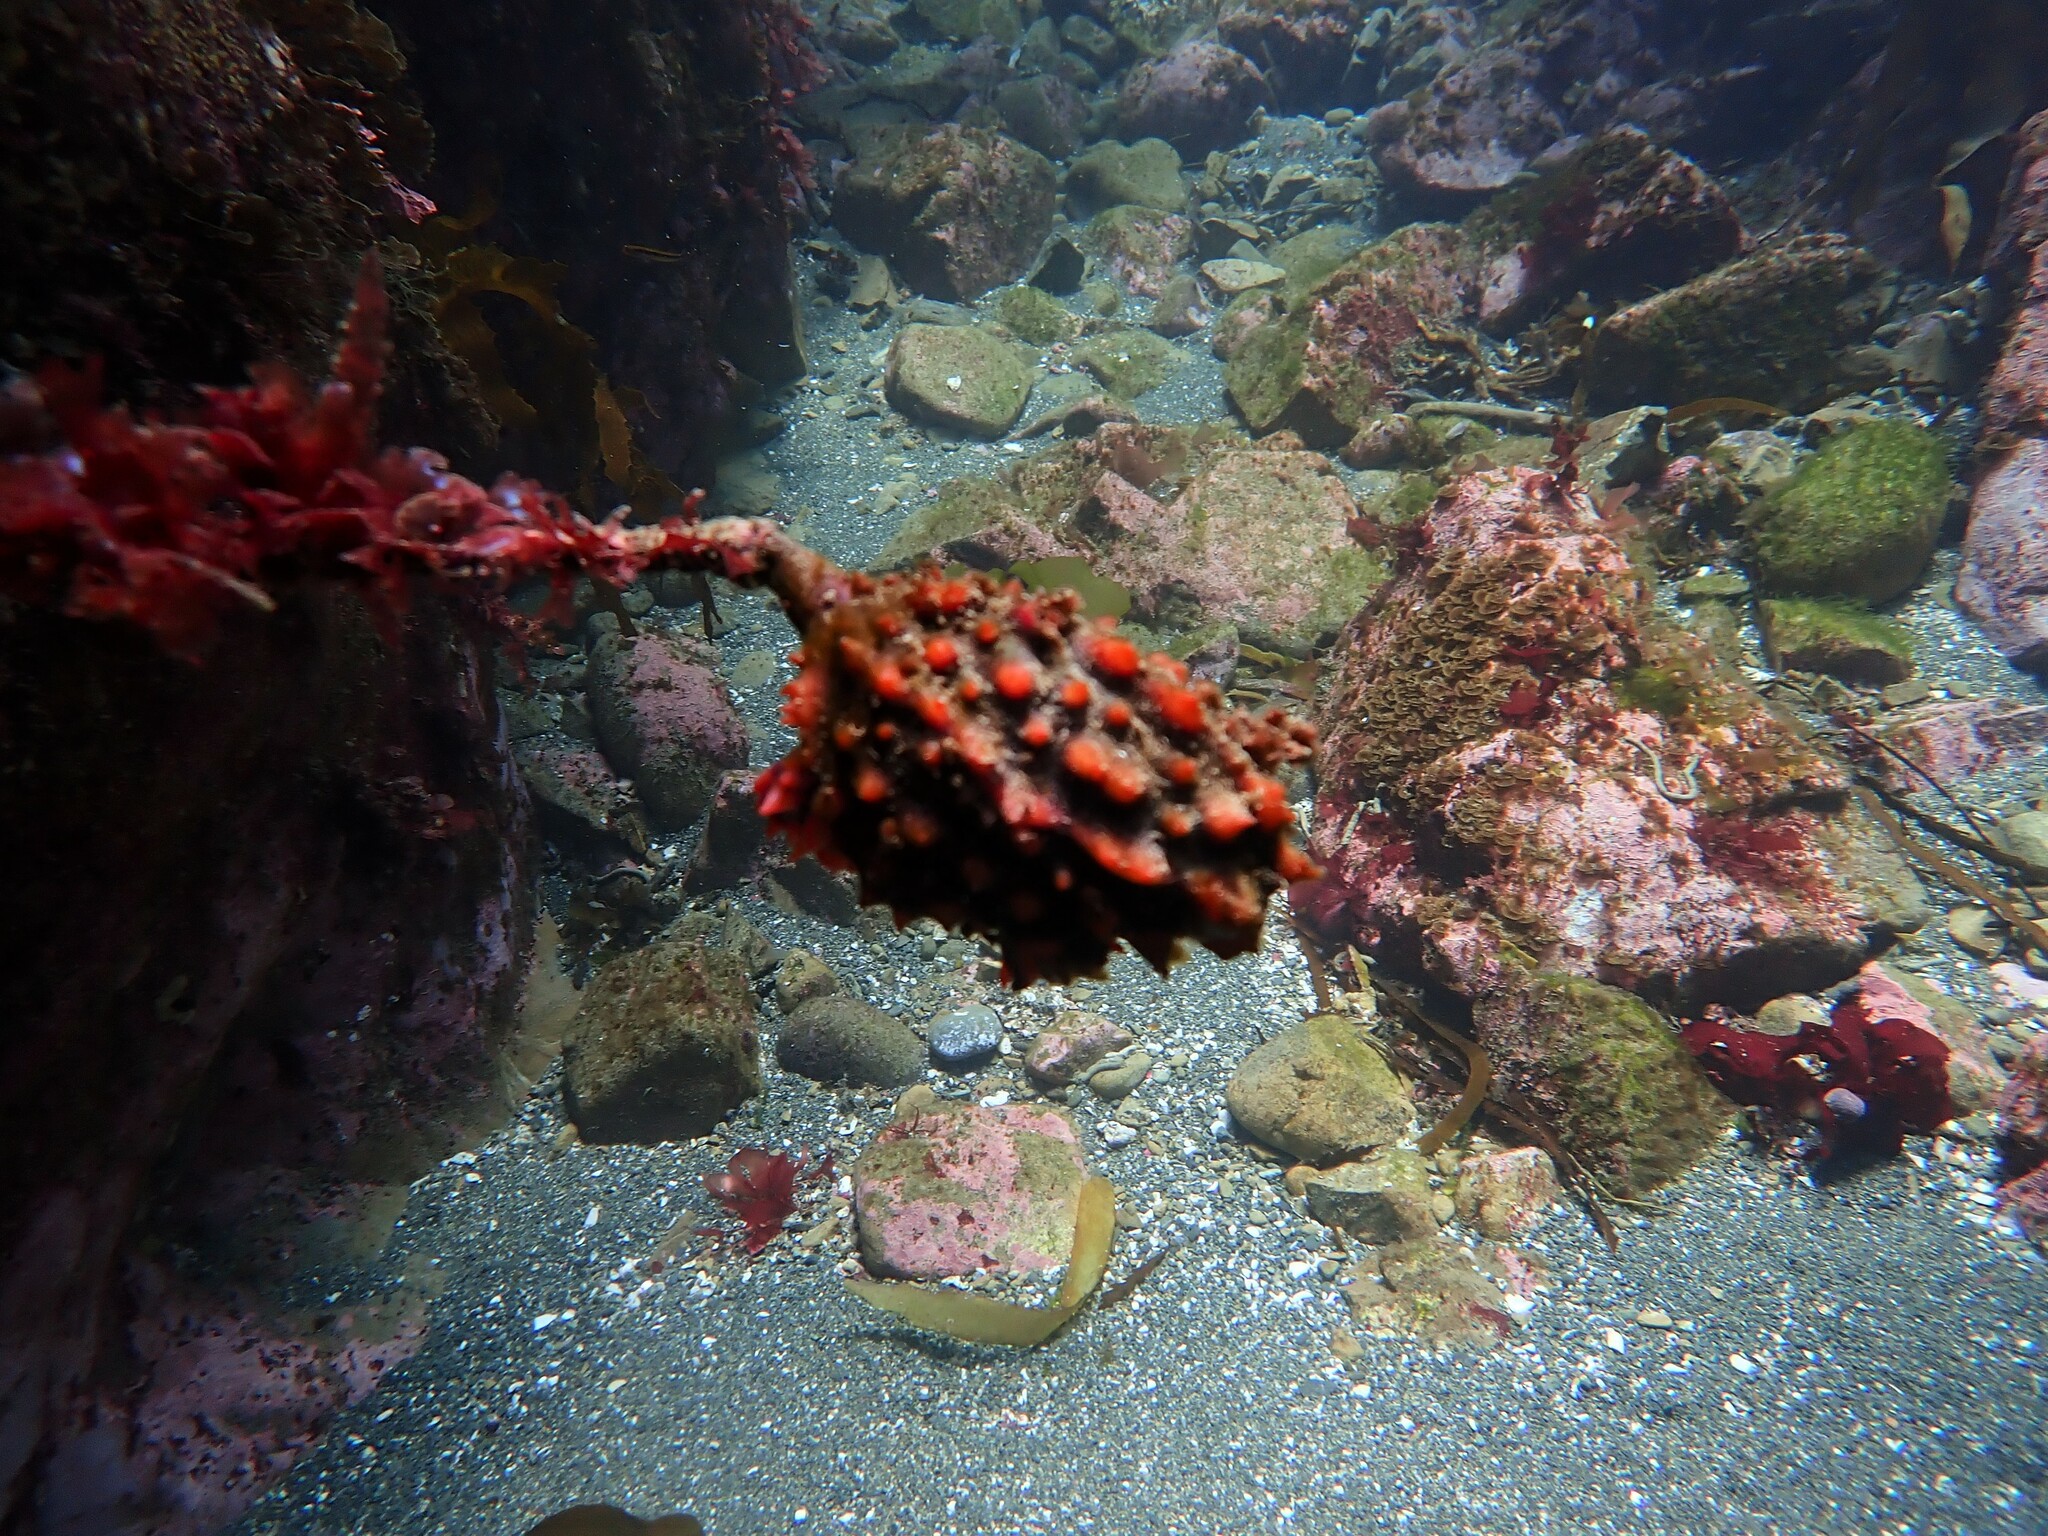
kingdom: Animalia
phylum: Chordata
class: Ascidiacea
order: Stolidobranchia
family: Pyuridae
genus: Pyura
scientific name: Pyura pachydermatina
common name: Sea tulip
